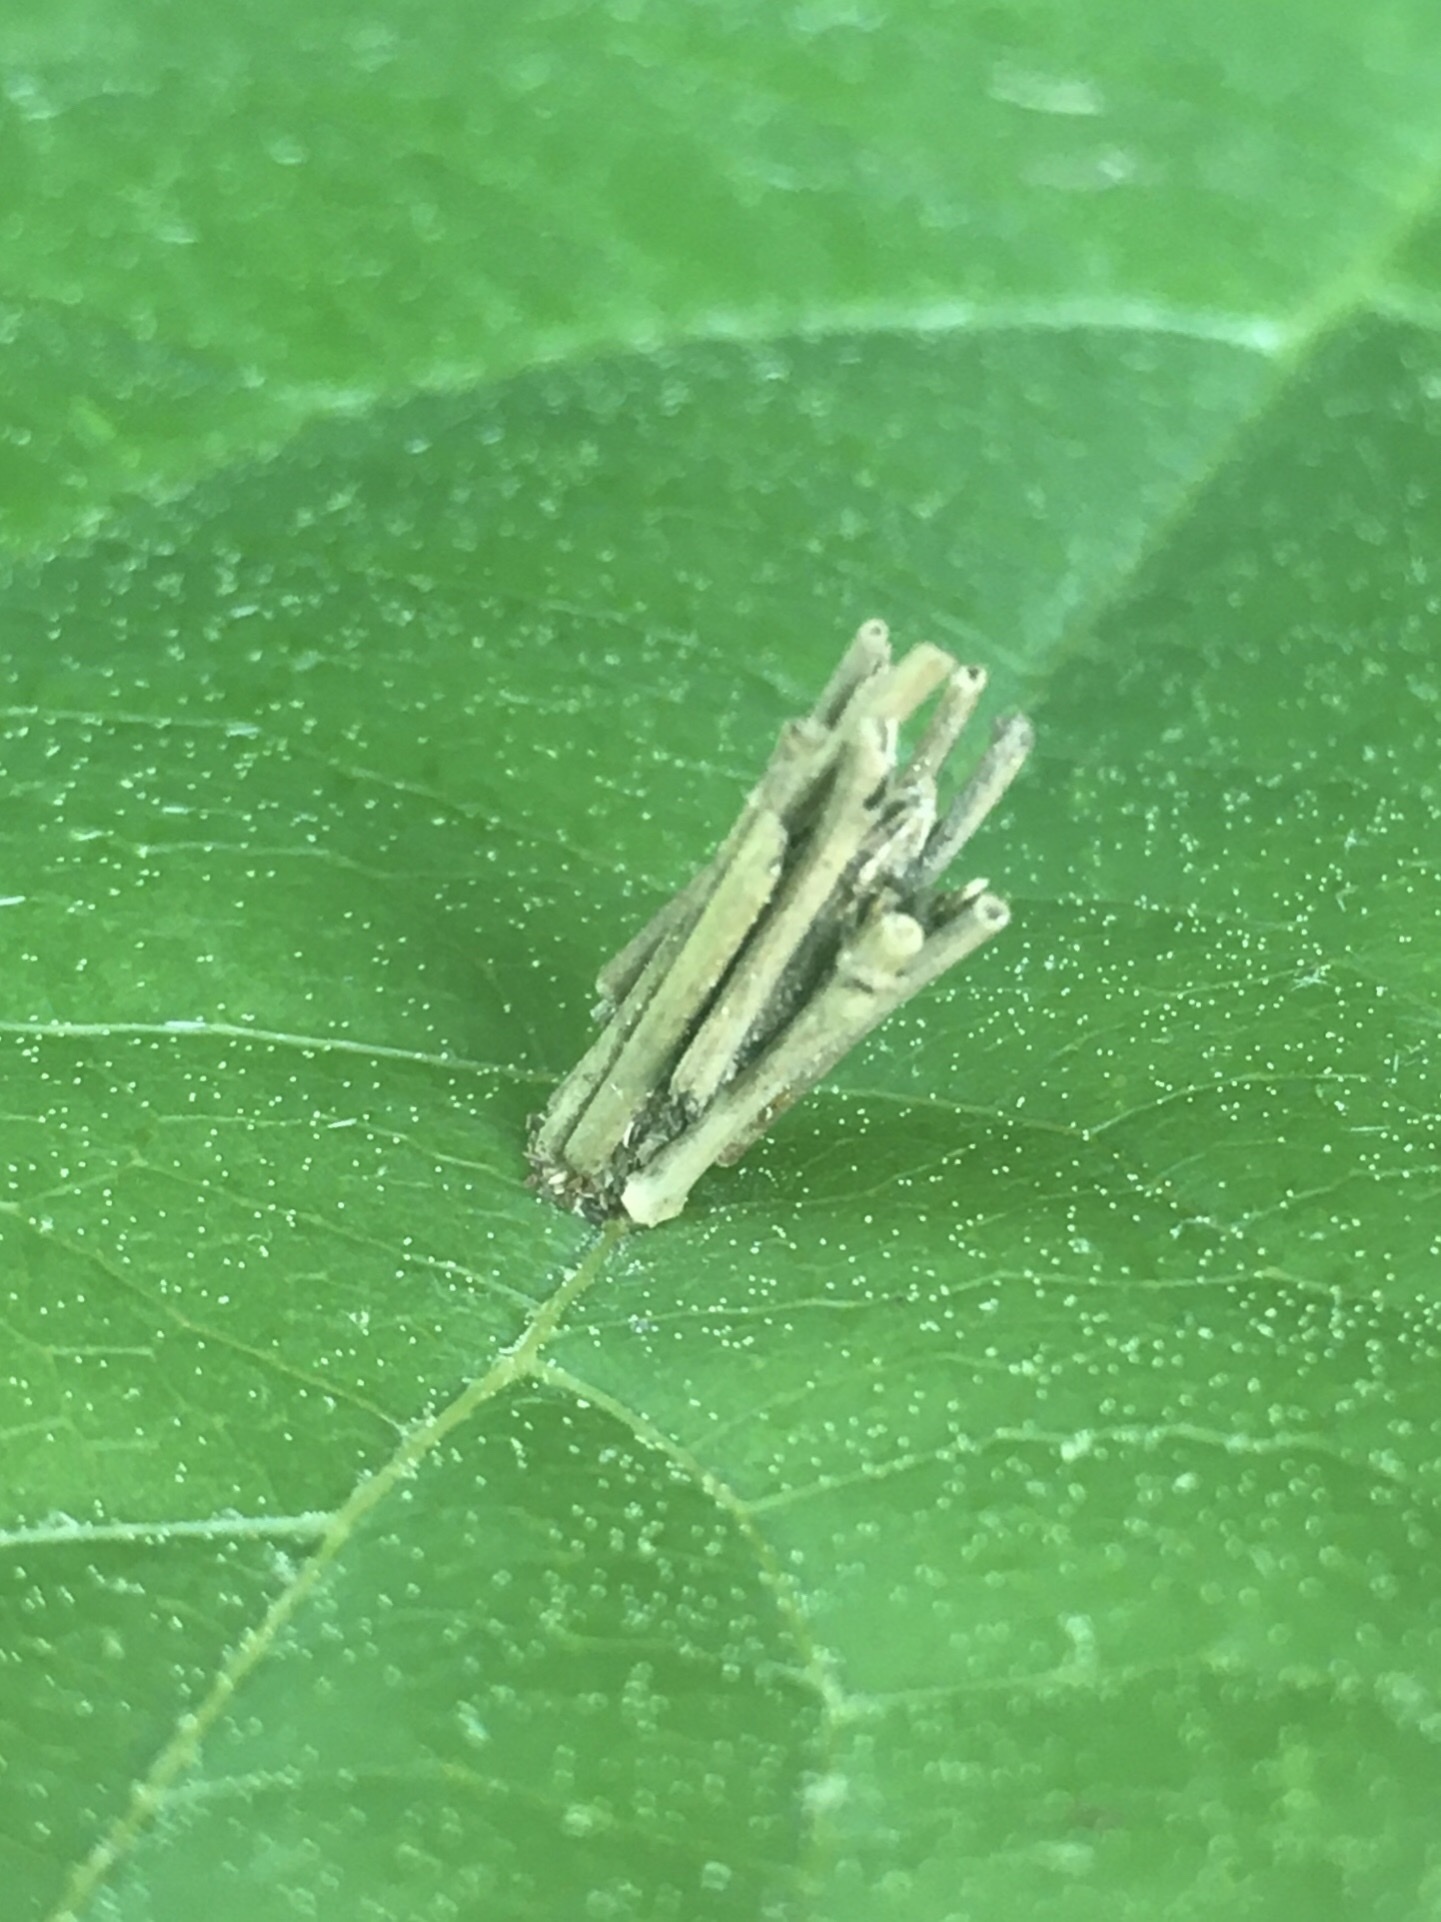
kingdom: Animalia
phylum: Arthropoda
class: Insecta
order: Lepidoptera
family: Psychidae
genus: Psyche
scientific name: Psyche casta
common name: Common sweep
